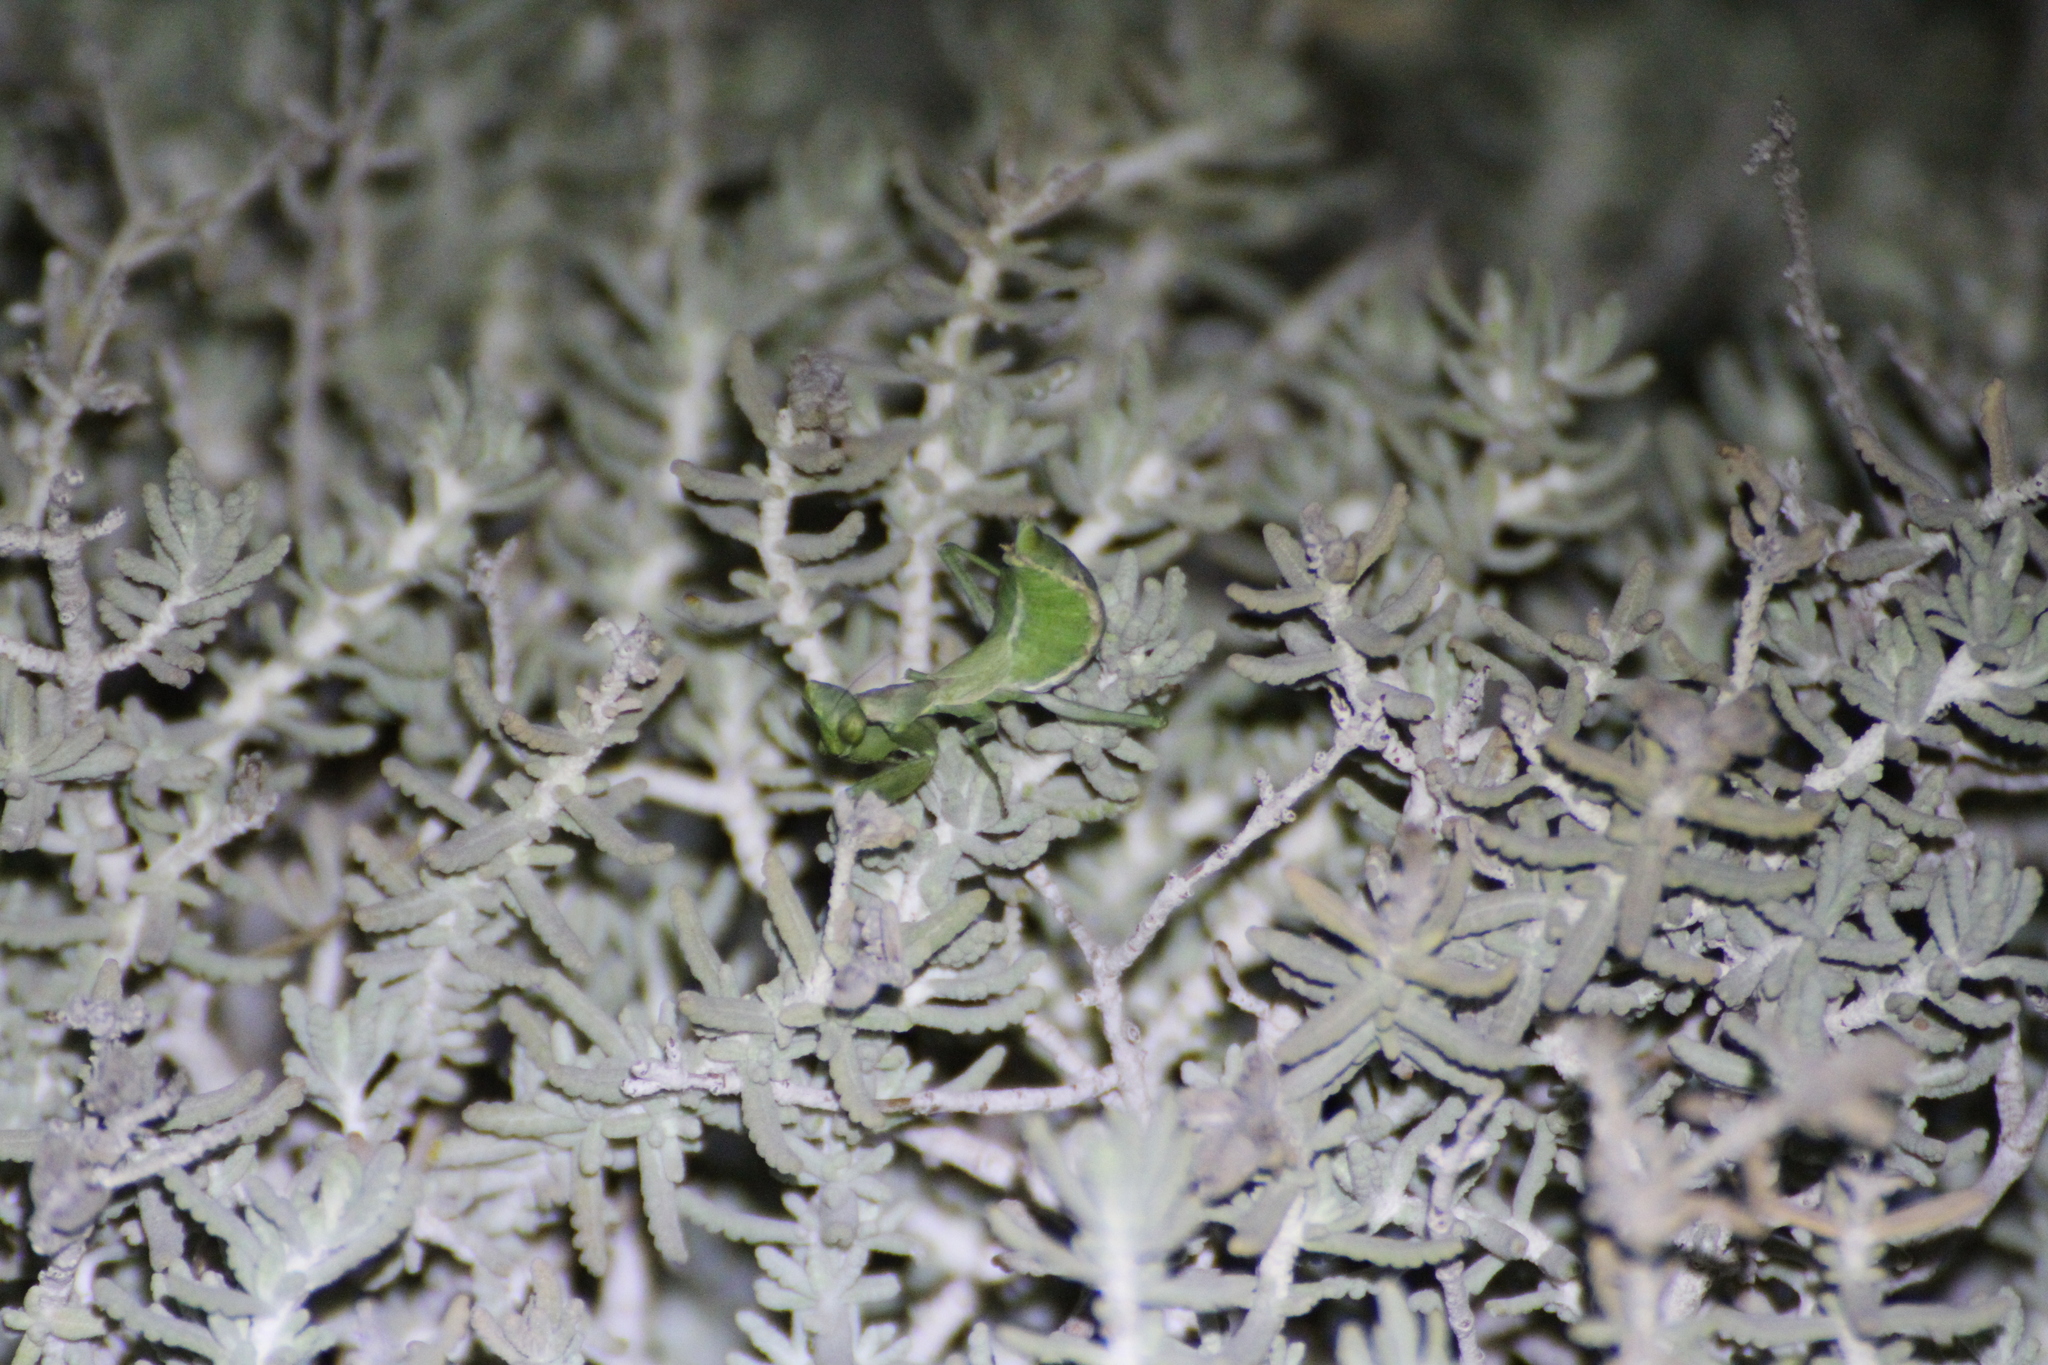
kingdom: Animalia
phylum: Arthropoda
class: Insecta
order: Mantodea
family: Amelidae
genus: Ameles
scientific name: Ameles spallanzania
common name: European dwarf mantis
